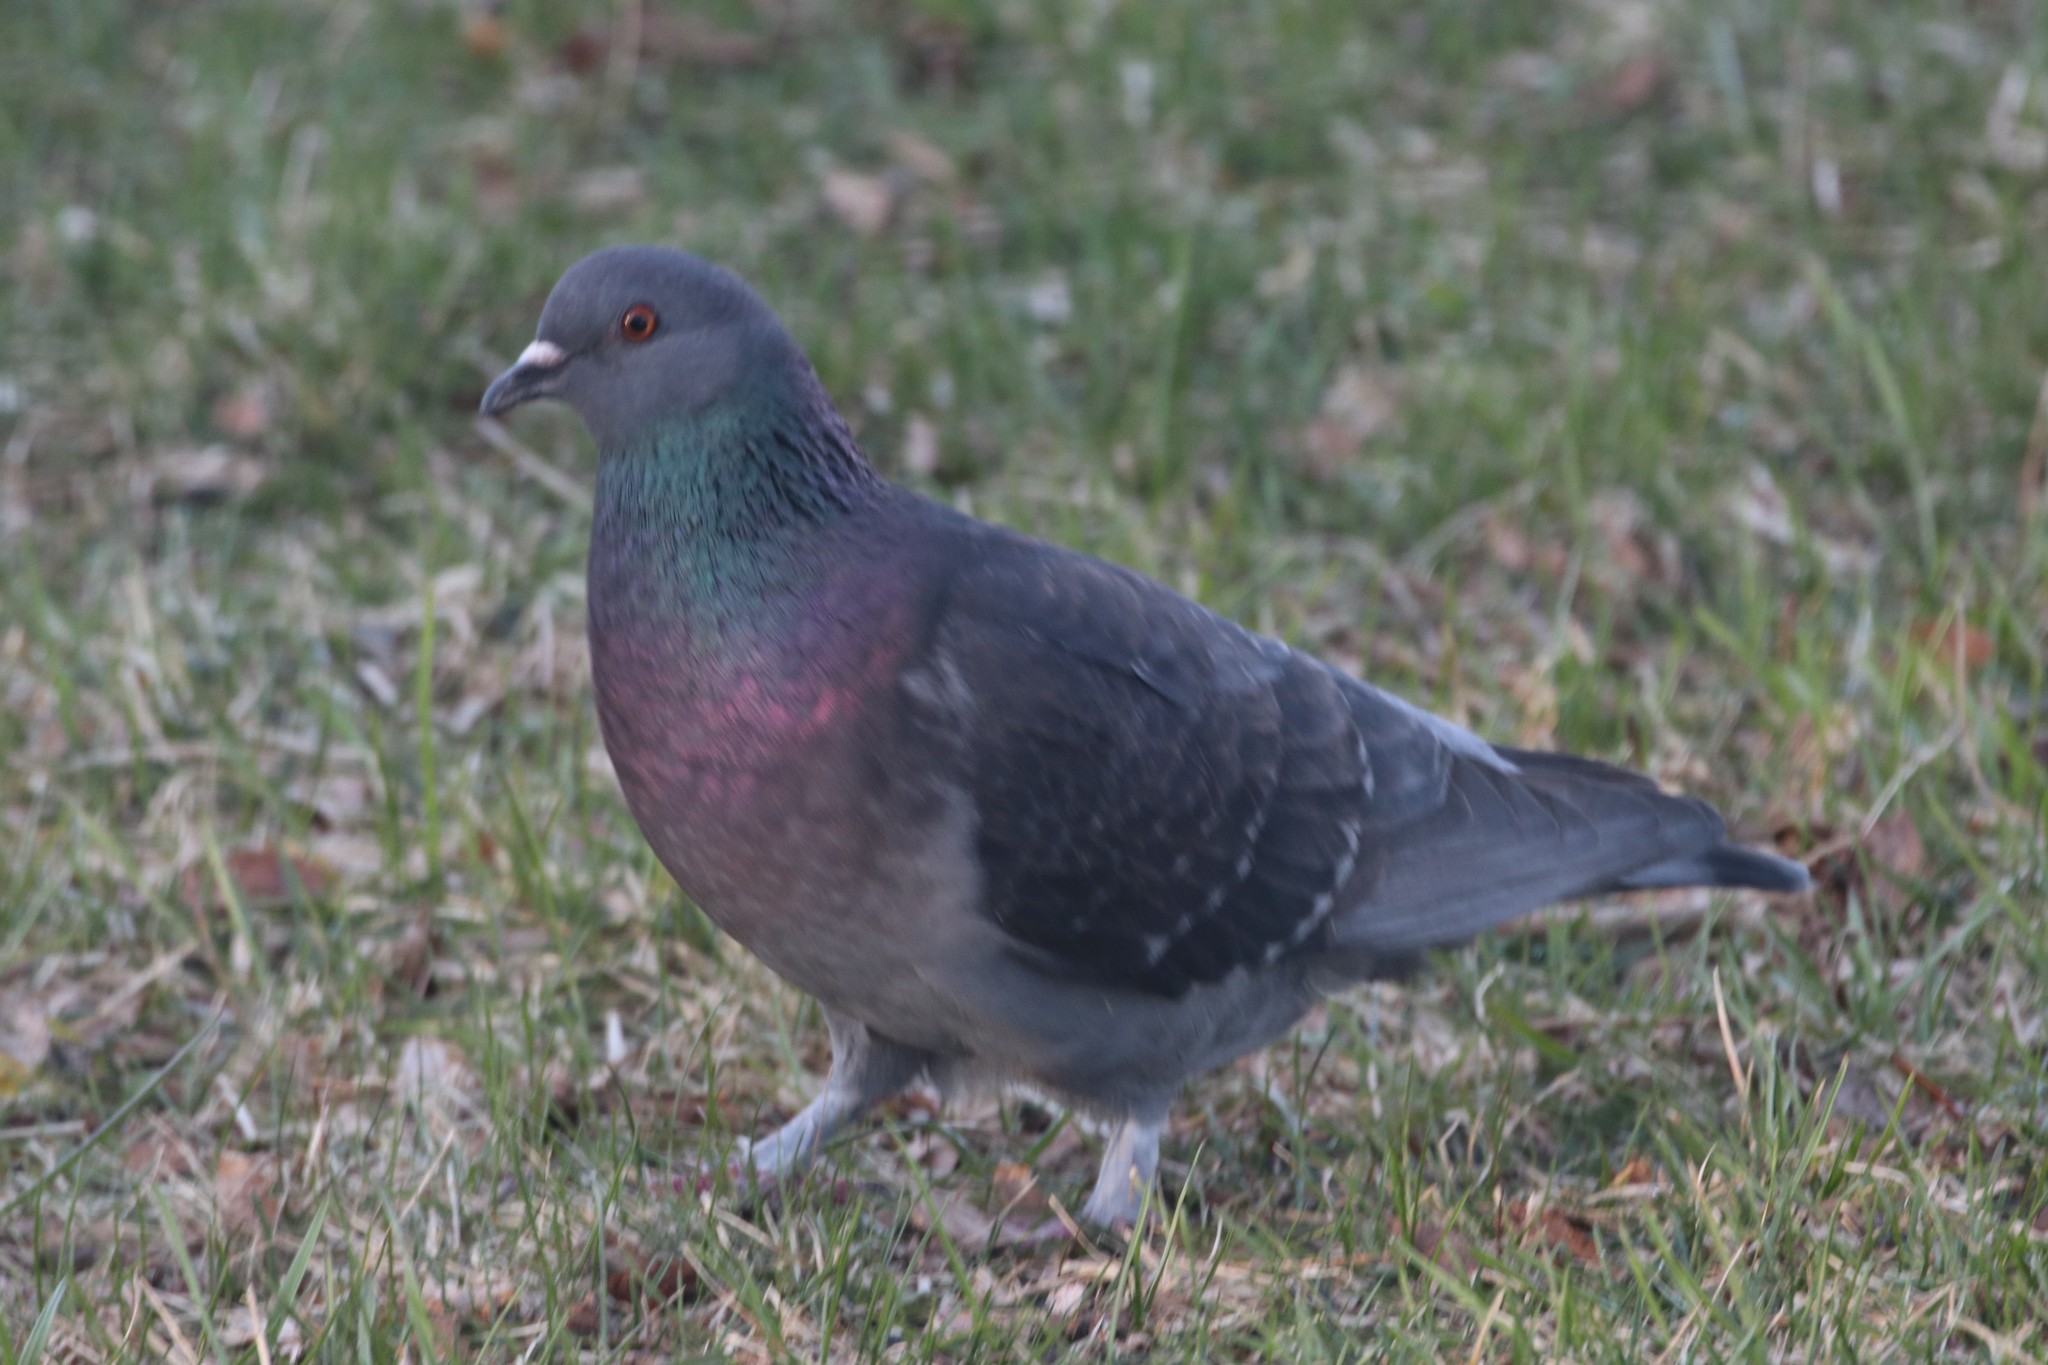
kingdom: Animalia
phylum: Chordata
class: Aves
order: Columbiformes
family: Columbidae
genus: Columba
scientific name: Columba livia
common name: Rock pigeon
